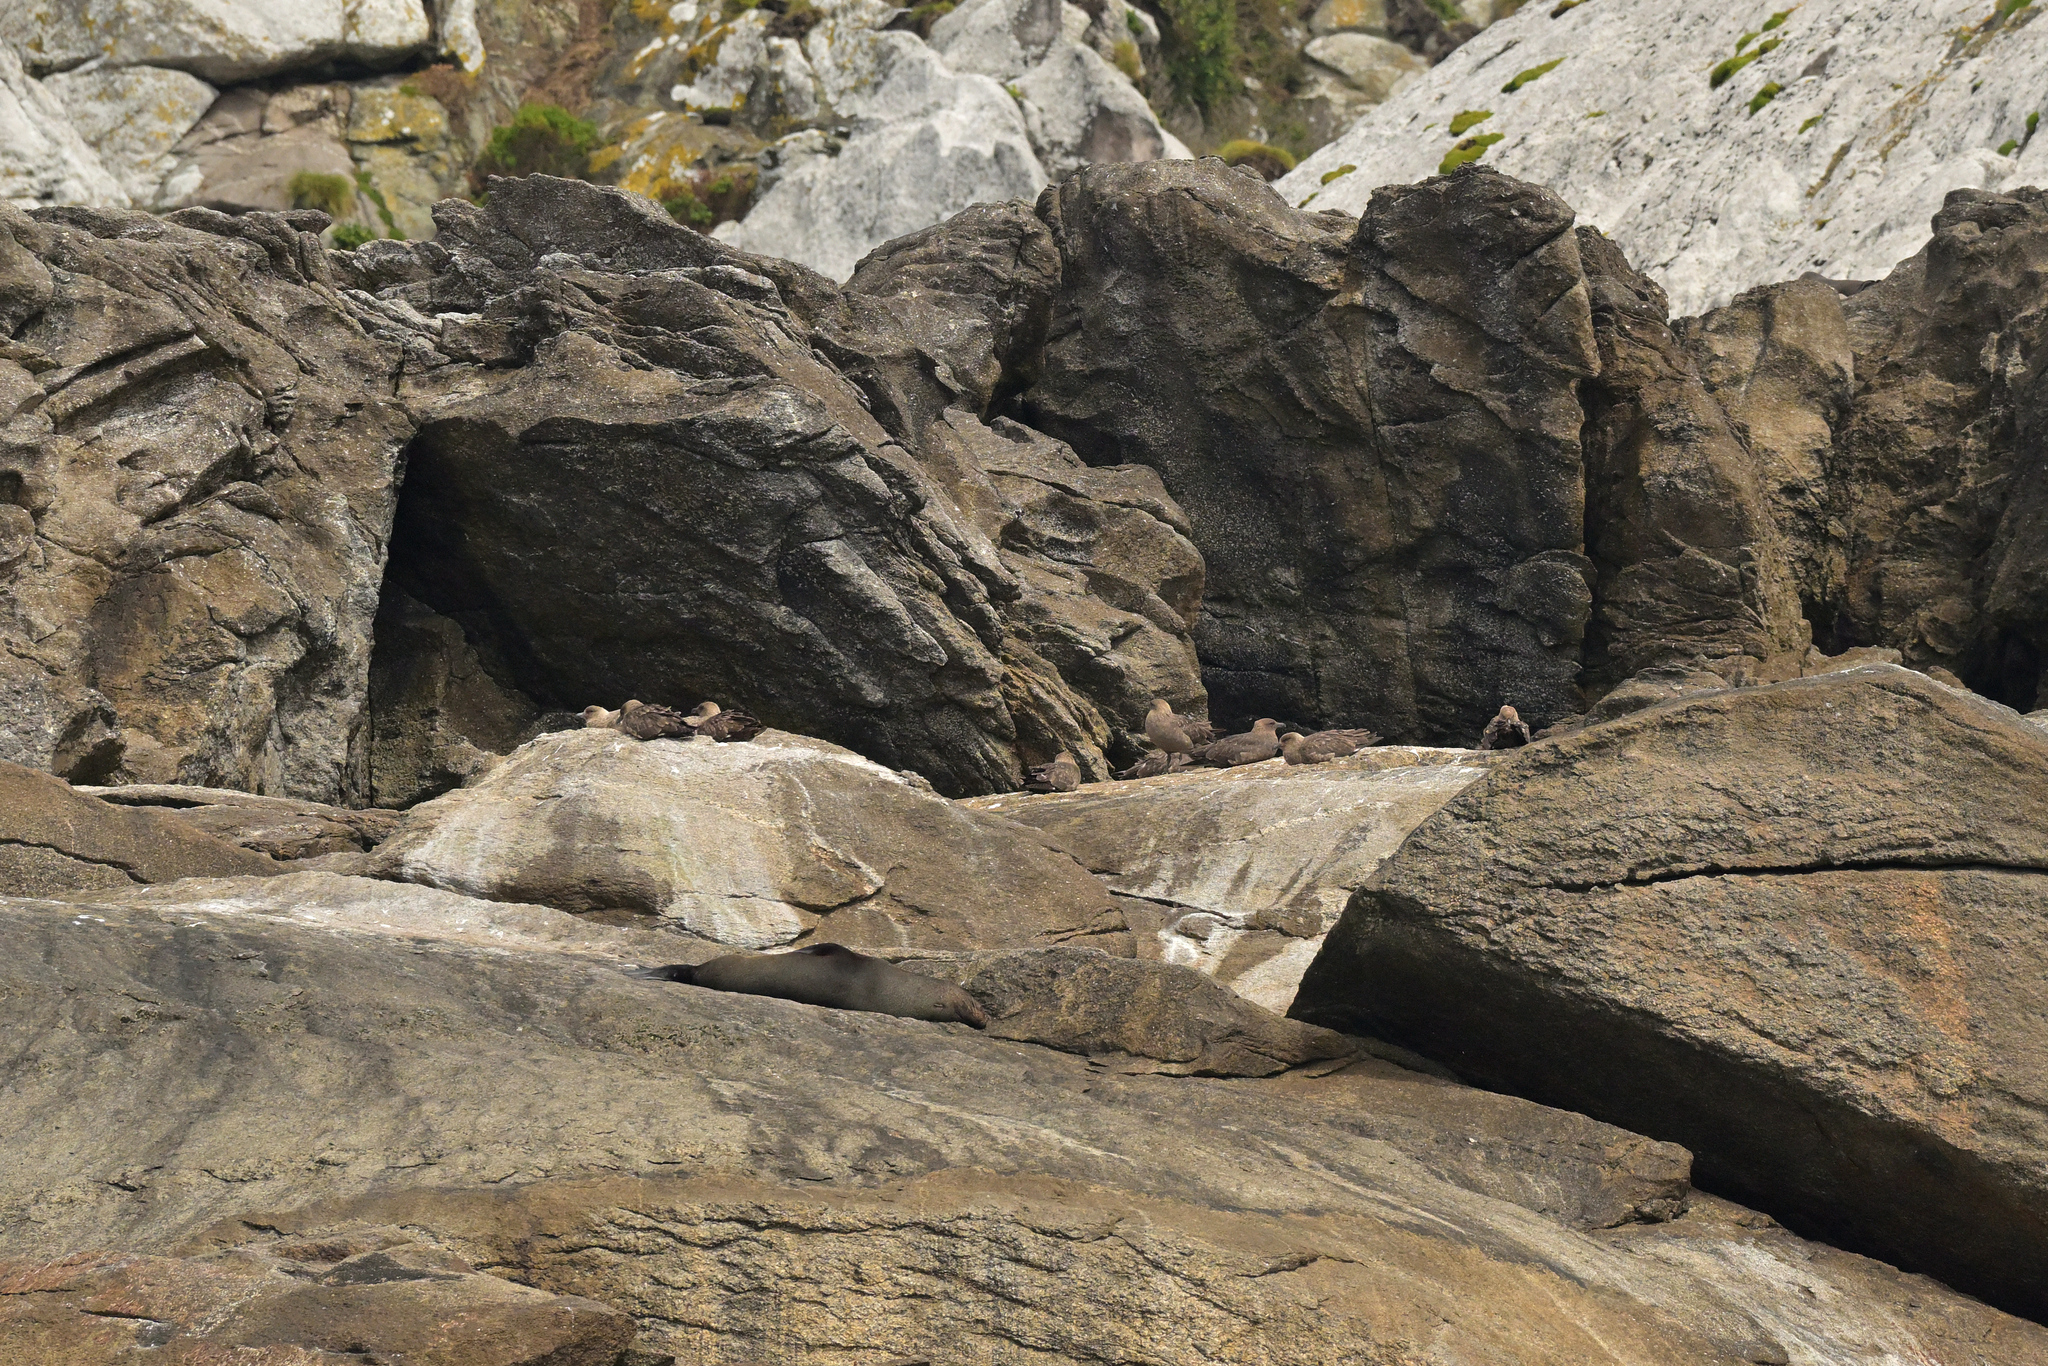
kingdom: Animalia
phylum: Chordata
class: Aves
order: Charadriiformes
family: Stercorariidae
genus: Stercorarius
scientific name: Stercorarius antarcticus
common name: Brown skua
